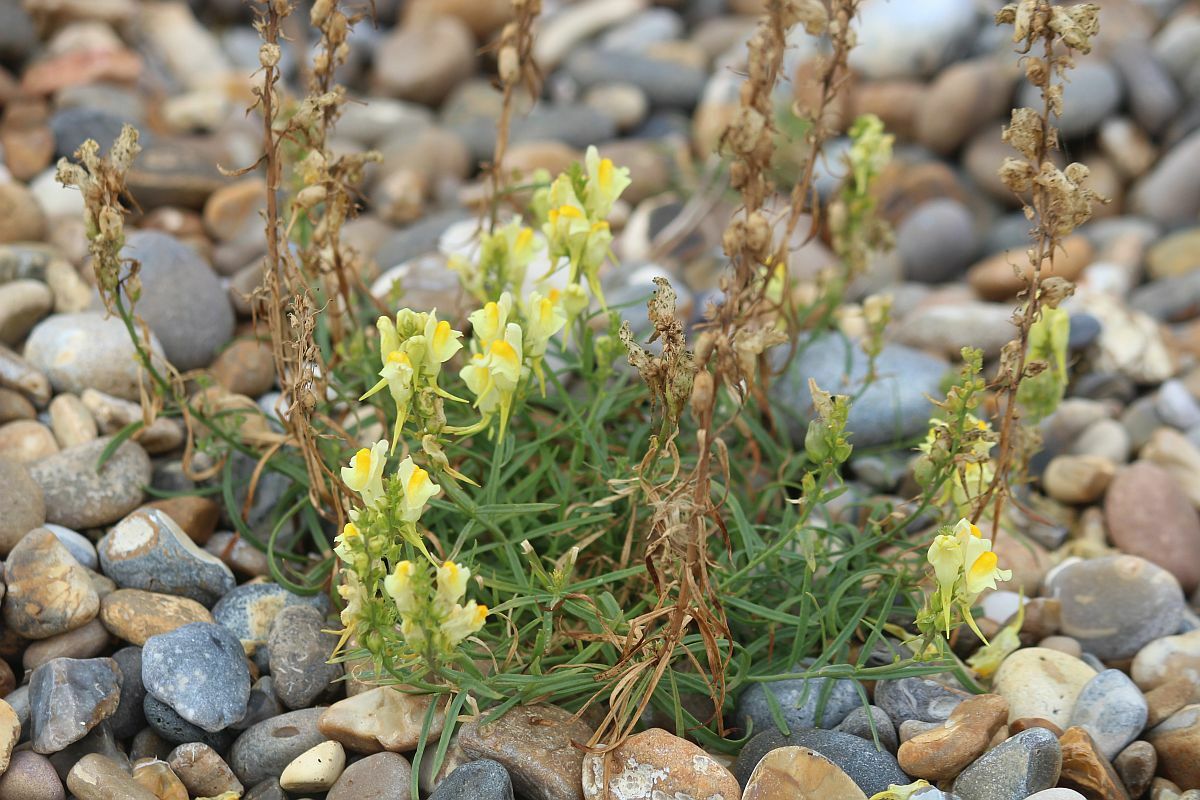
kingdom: Plantae
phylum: Tracheophyta
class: Magnoliopsida
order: Lamiales
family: Plantaginaceae
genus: Linaria
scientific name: Linaria vulgaris
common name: Butter and eggs
